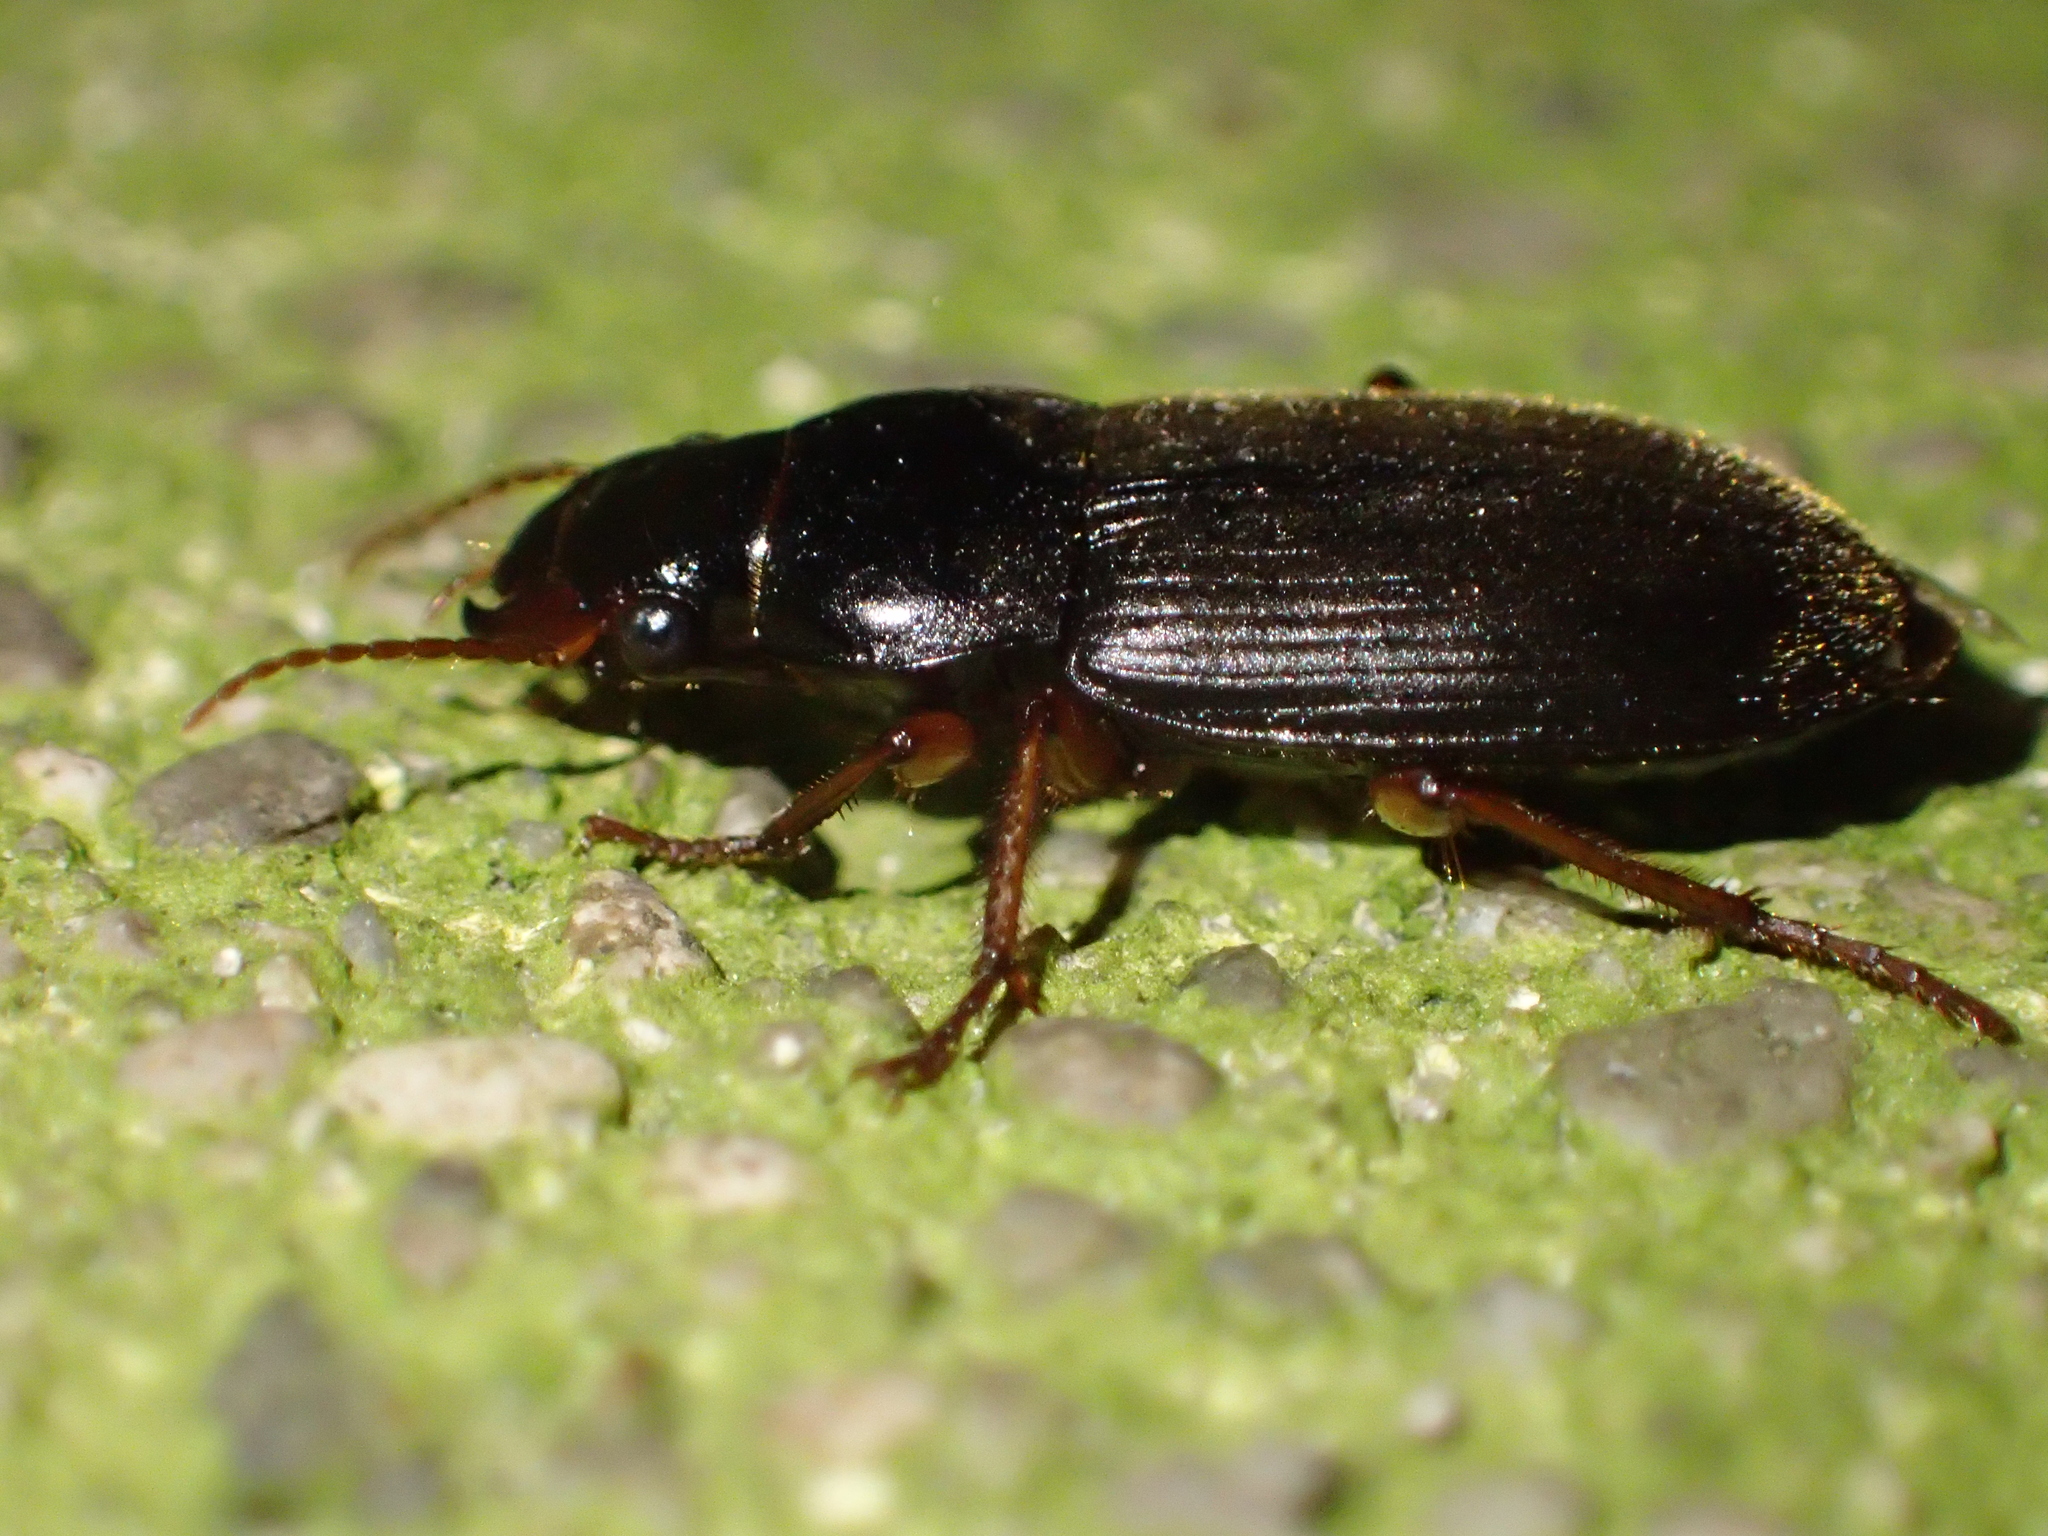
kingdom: Animalia
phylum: Arthropoda
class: Insecta
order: Coleoptera
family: Carabidae
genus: Harpalus
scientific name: Harpalus rufipes
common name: Strawberry harp ground beetle
